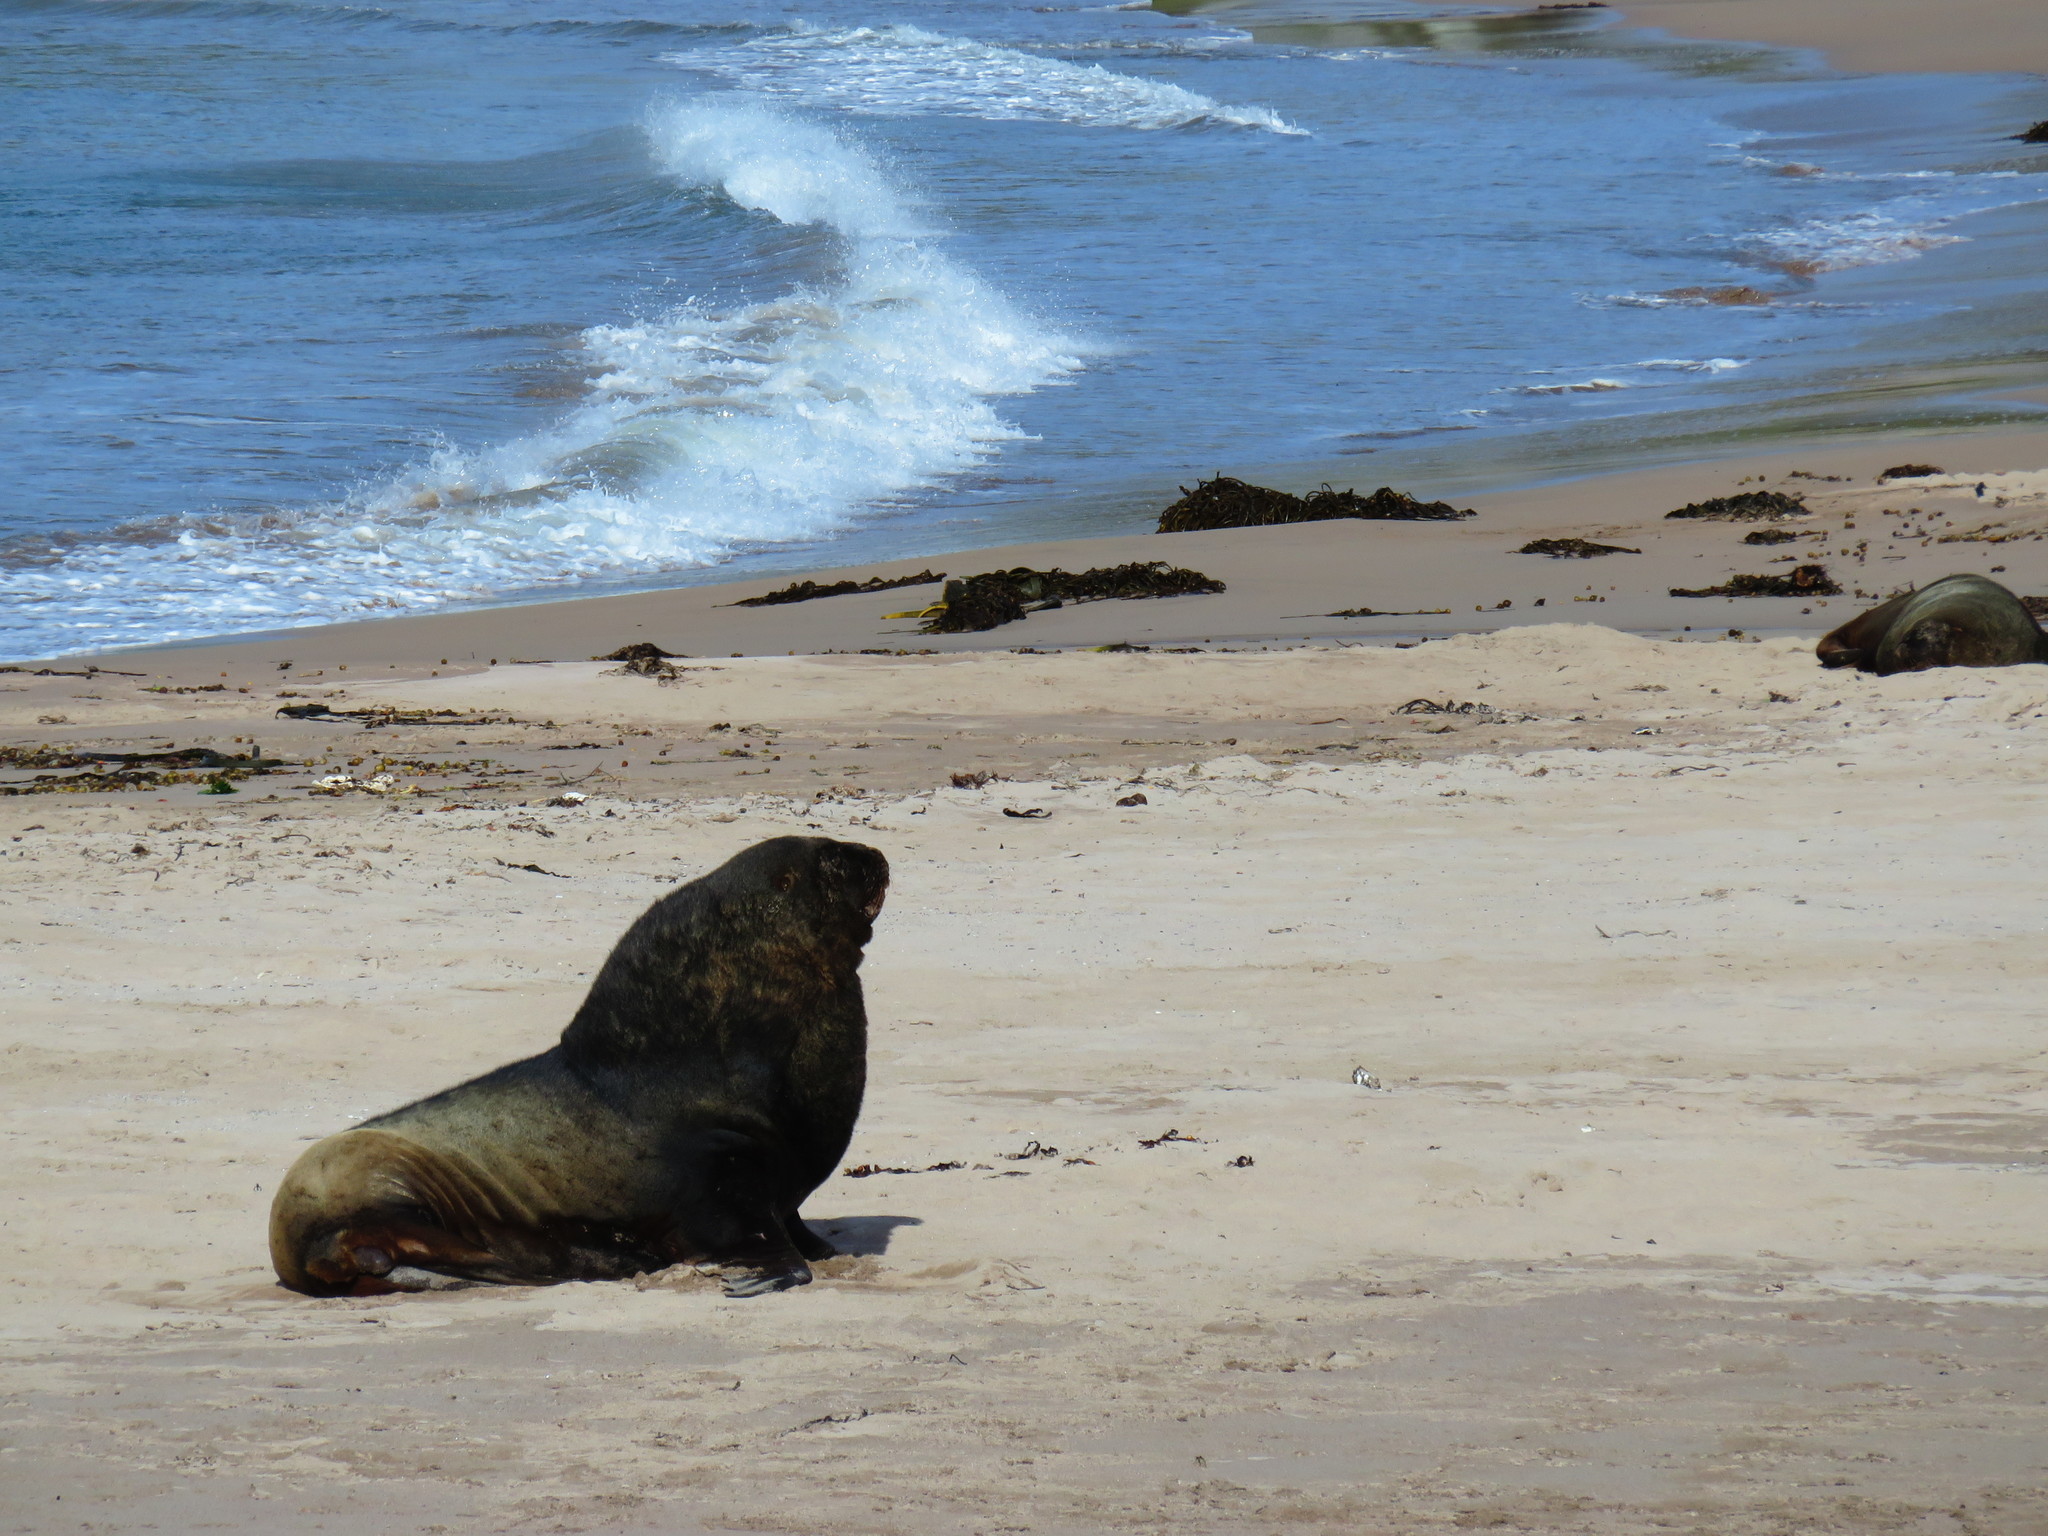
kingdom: Animalia
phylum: Chordata
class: Mammalia
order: Carnivora
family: Otariidae
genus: Phocarctos
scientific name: Phocarctos hookeri
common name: New zealand sea lion
